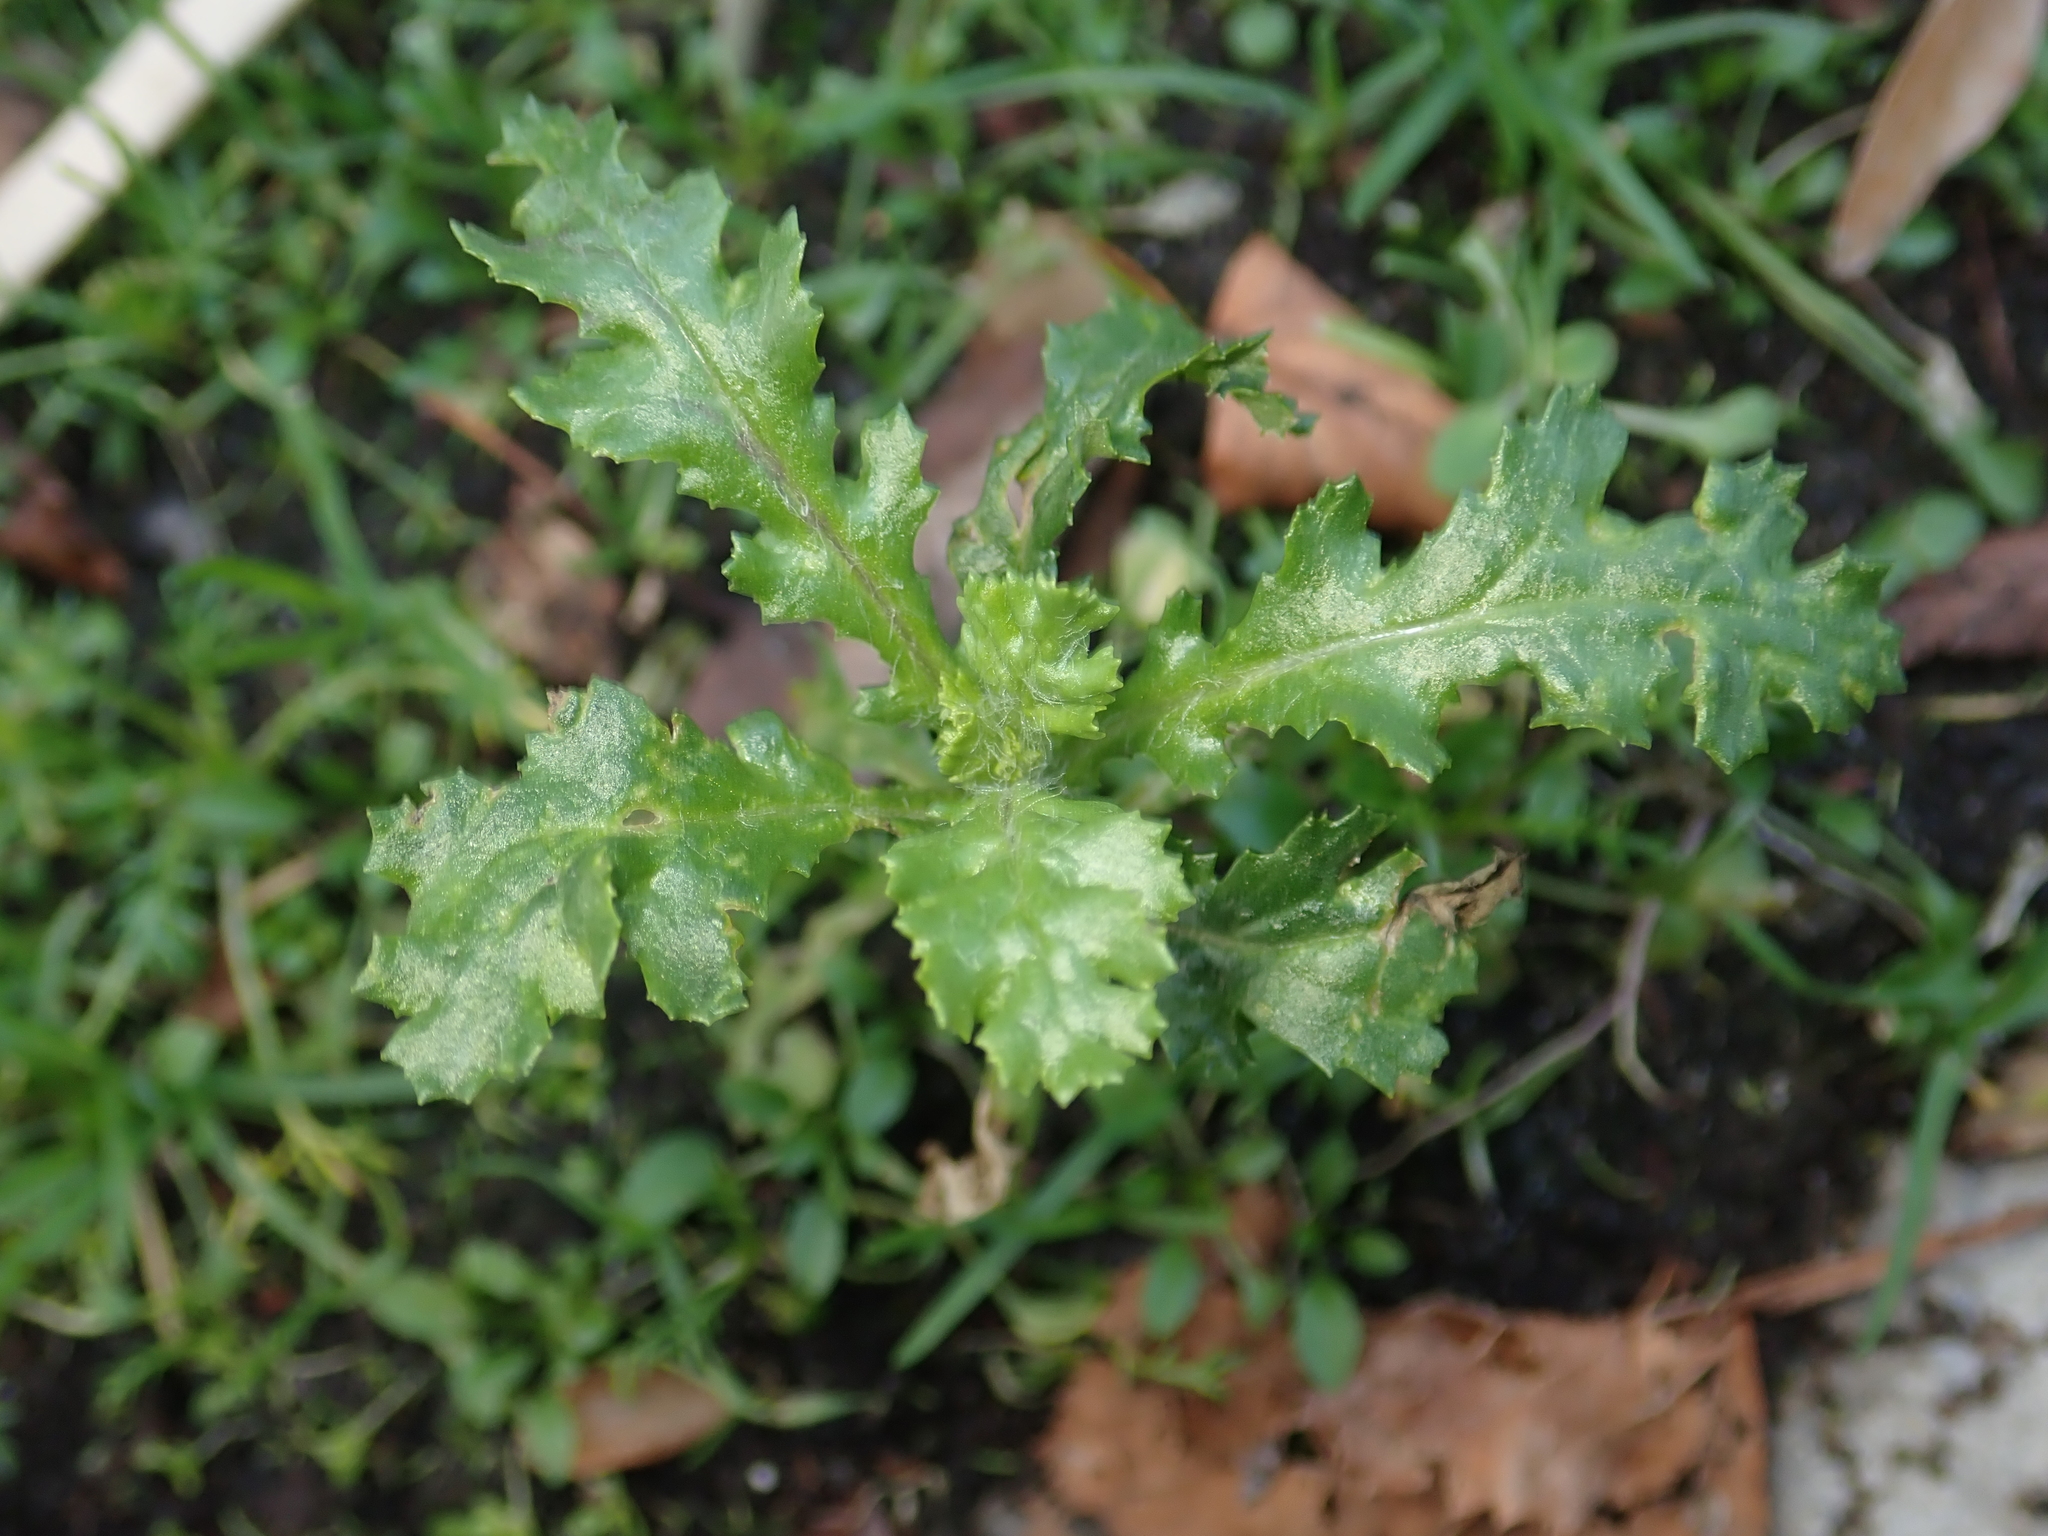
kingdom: Plantae
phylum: Tracheophyta
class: Magnoliopsida
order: Asterales
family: Asteraceae
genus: Senecio
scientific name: Senecio vulgaris
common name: Old-man-in-the-spring
